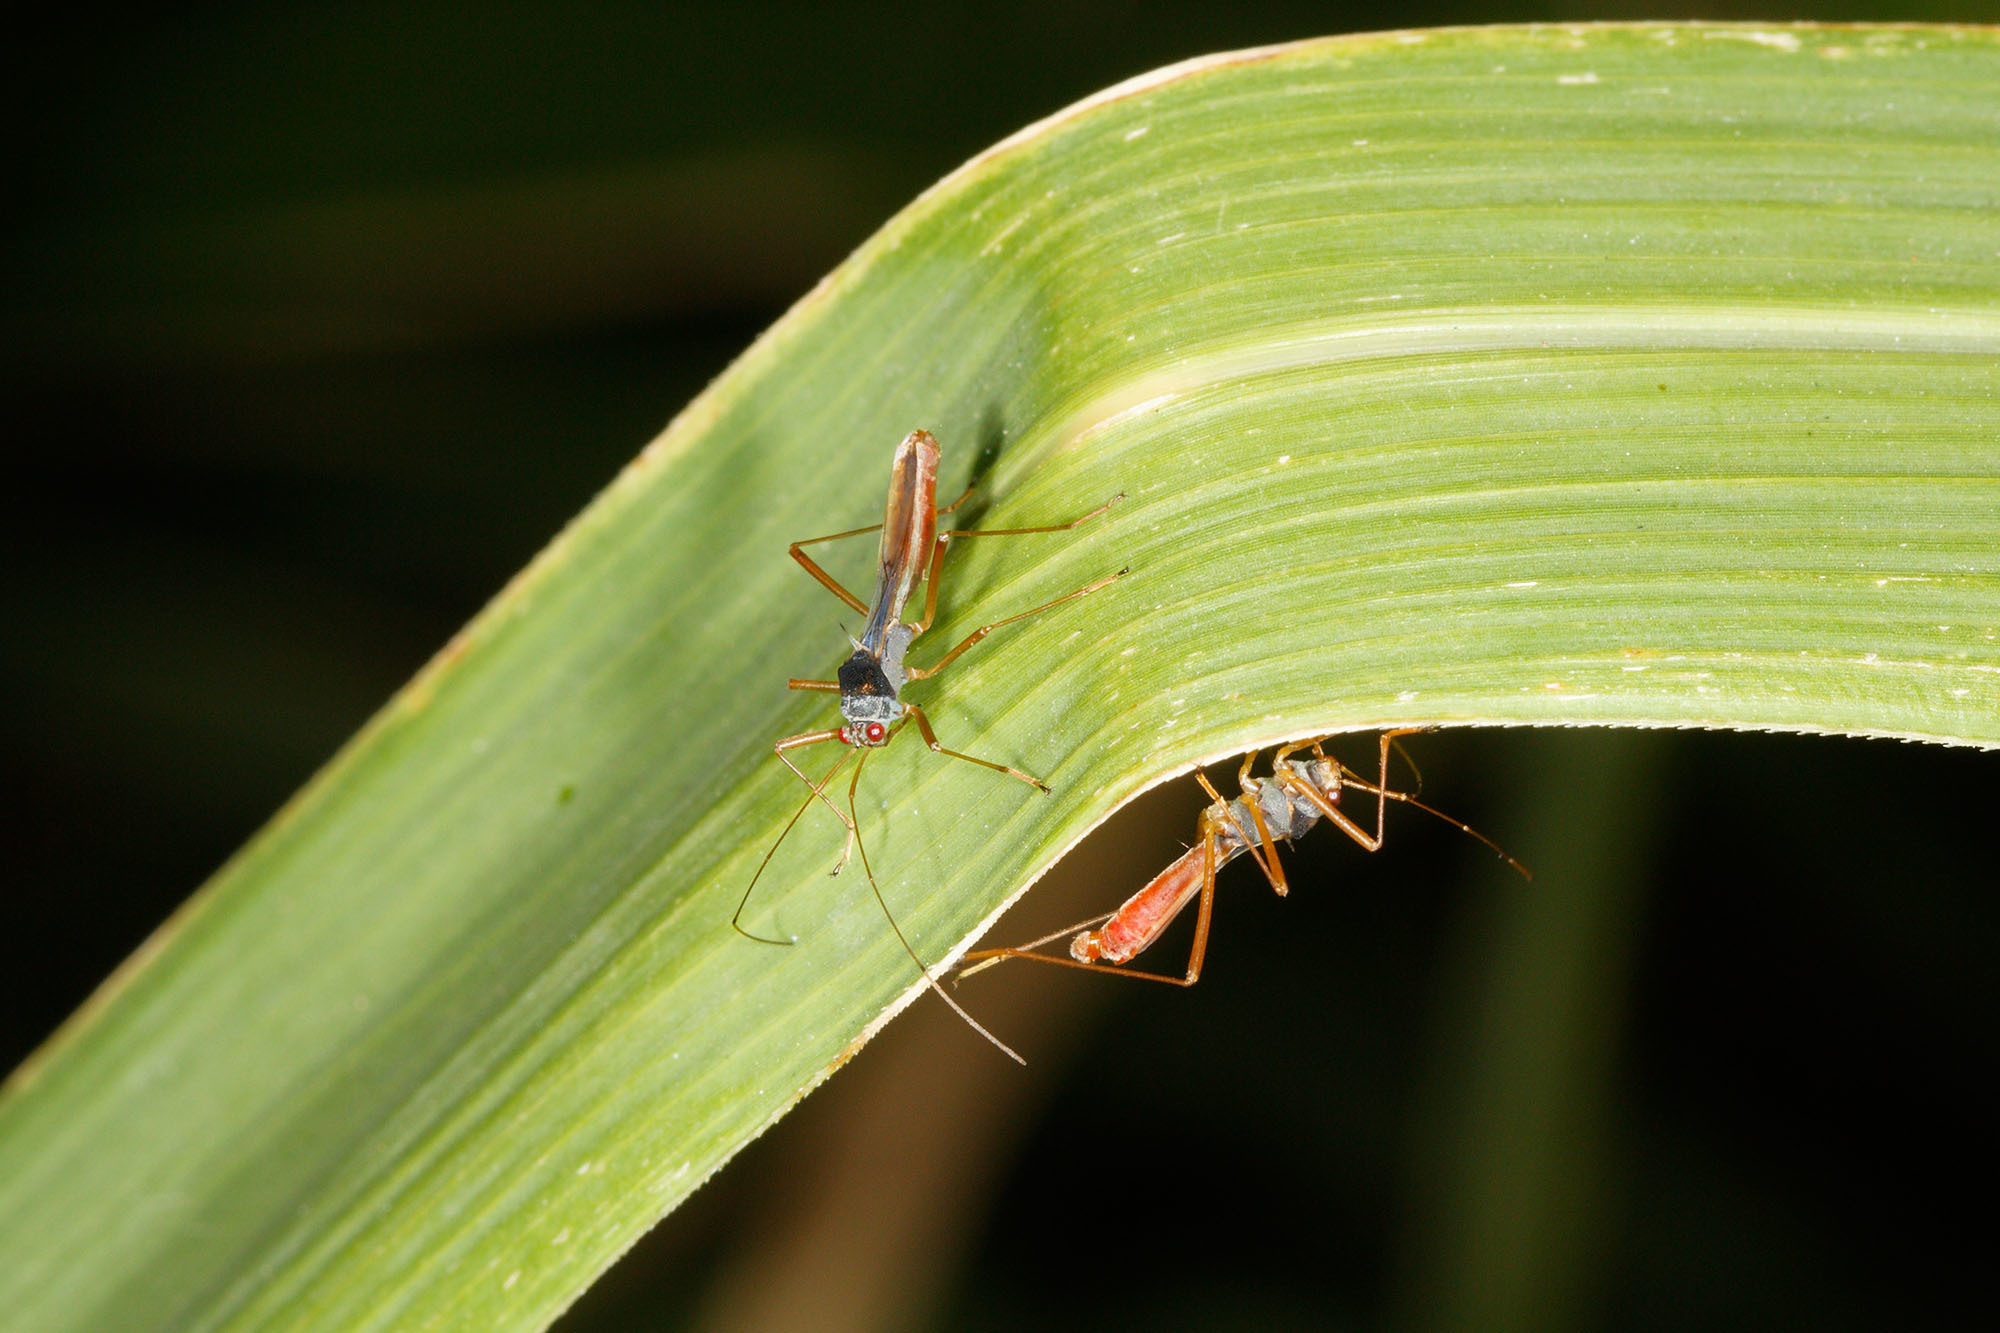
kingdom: Animalia
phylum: Arthropoda
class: Insecta
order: Hemiptera
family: Colobathristidae
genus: Phaenacantha
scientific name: Phaenacantha australiae
